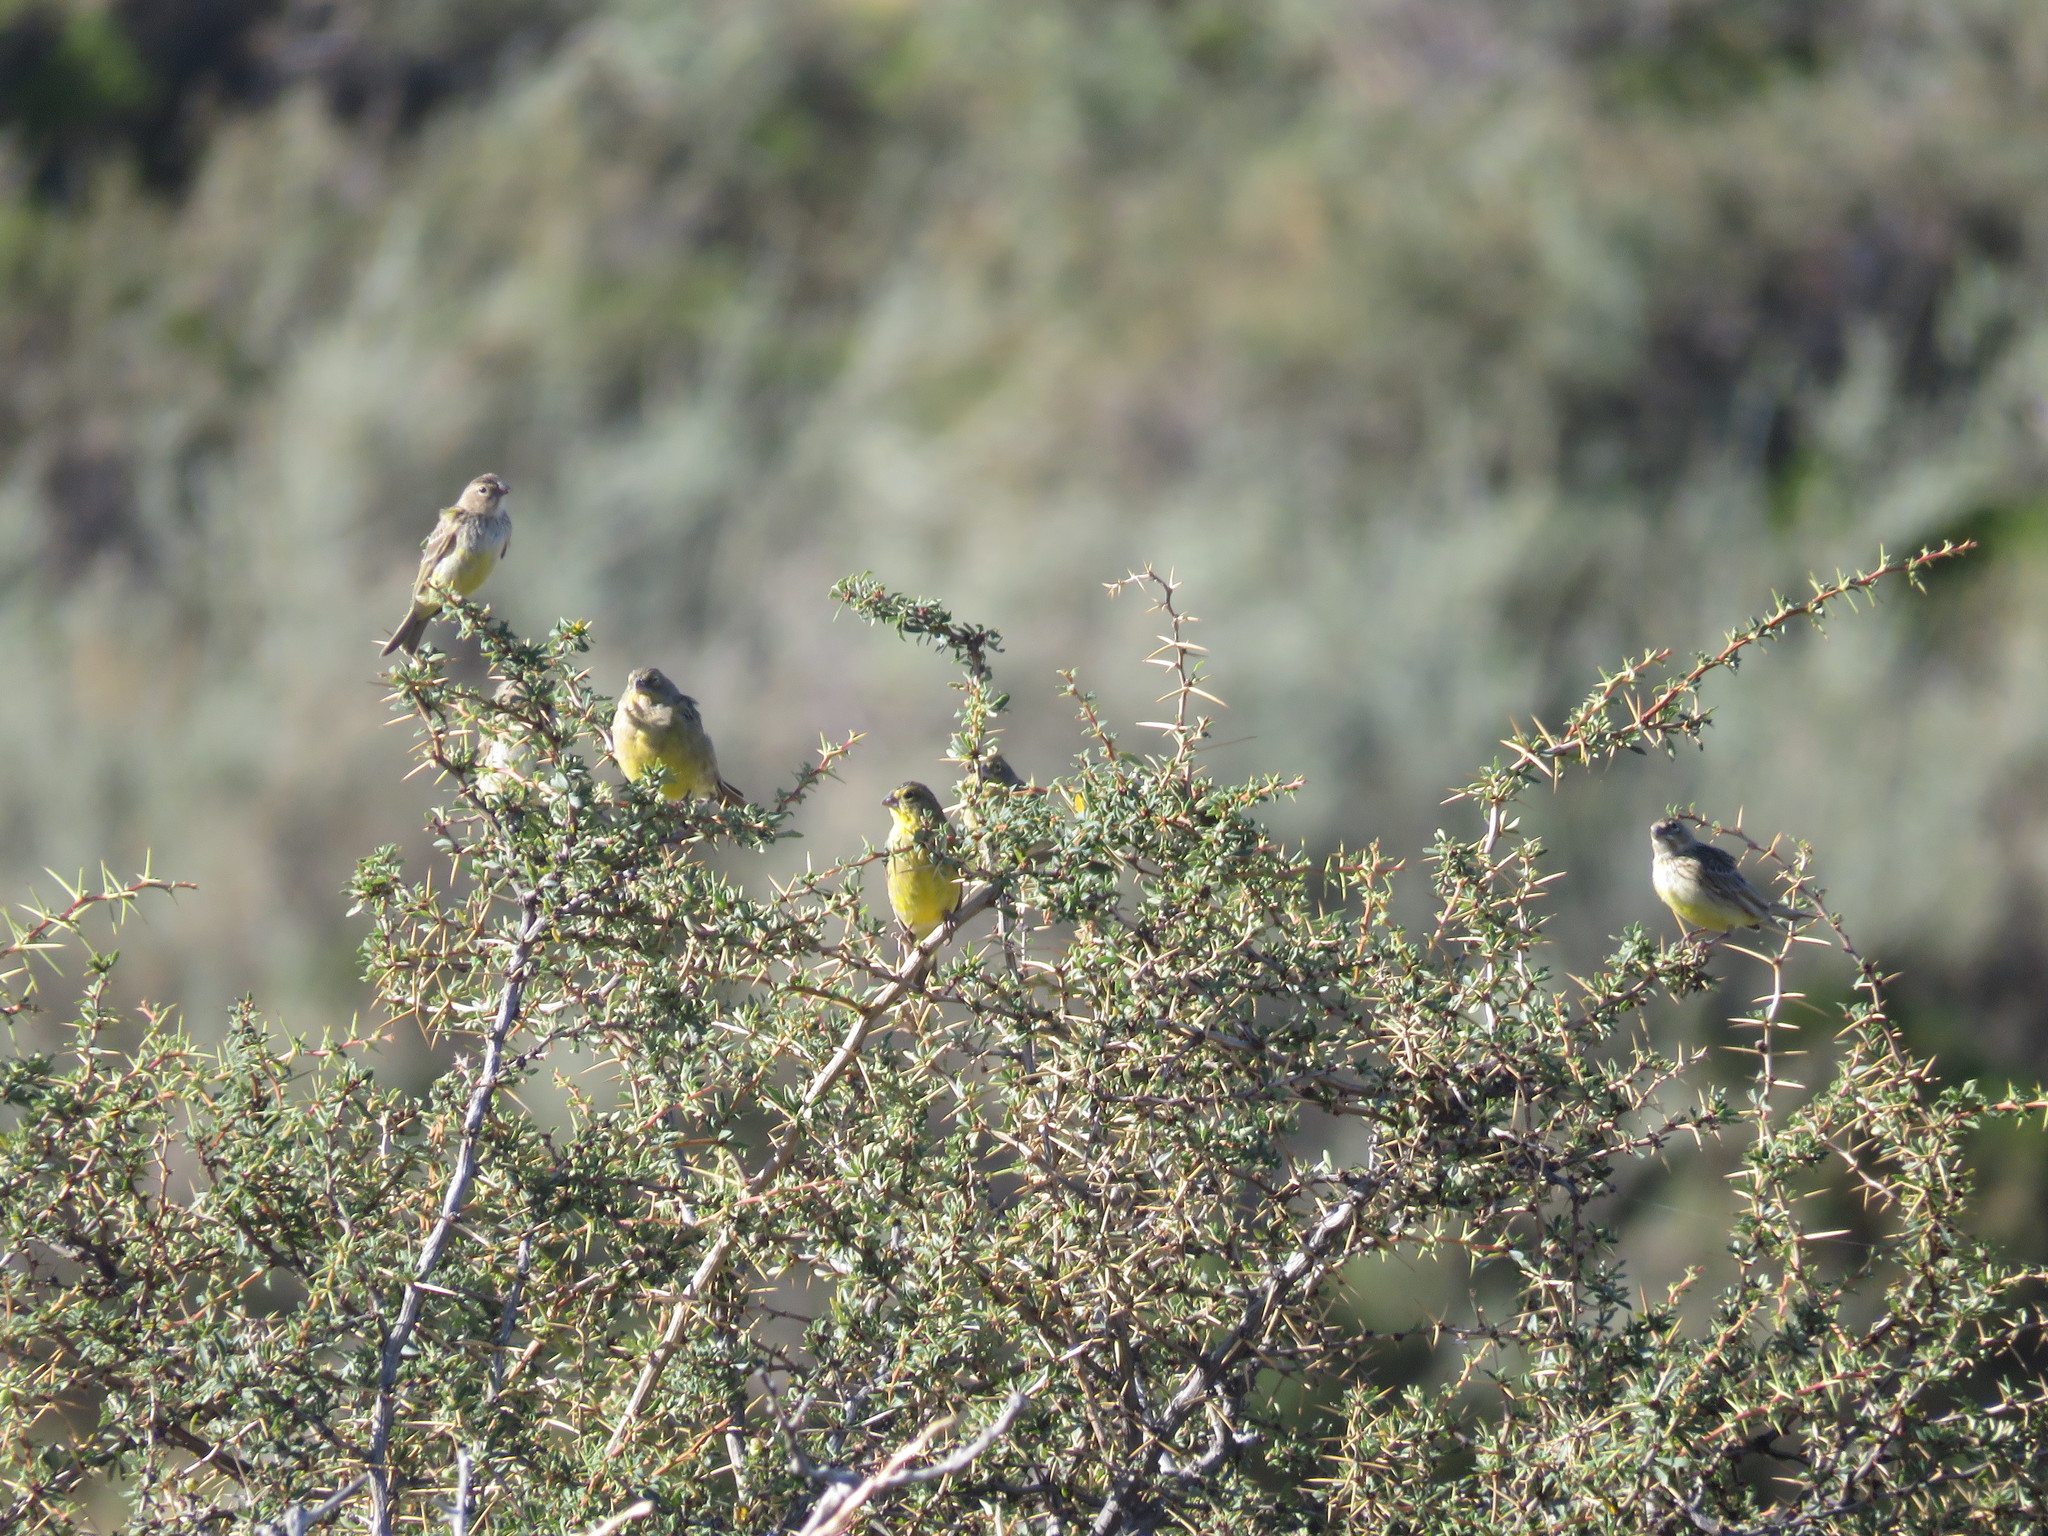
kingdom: Animalia
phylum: Chordata
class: Aves
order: Passeriformes
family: Thraupidae
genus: Sicalis
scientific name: Sicalis luteola
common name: Grassland yellow-finch
